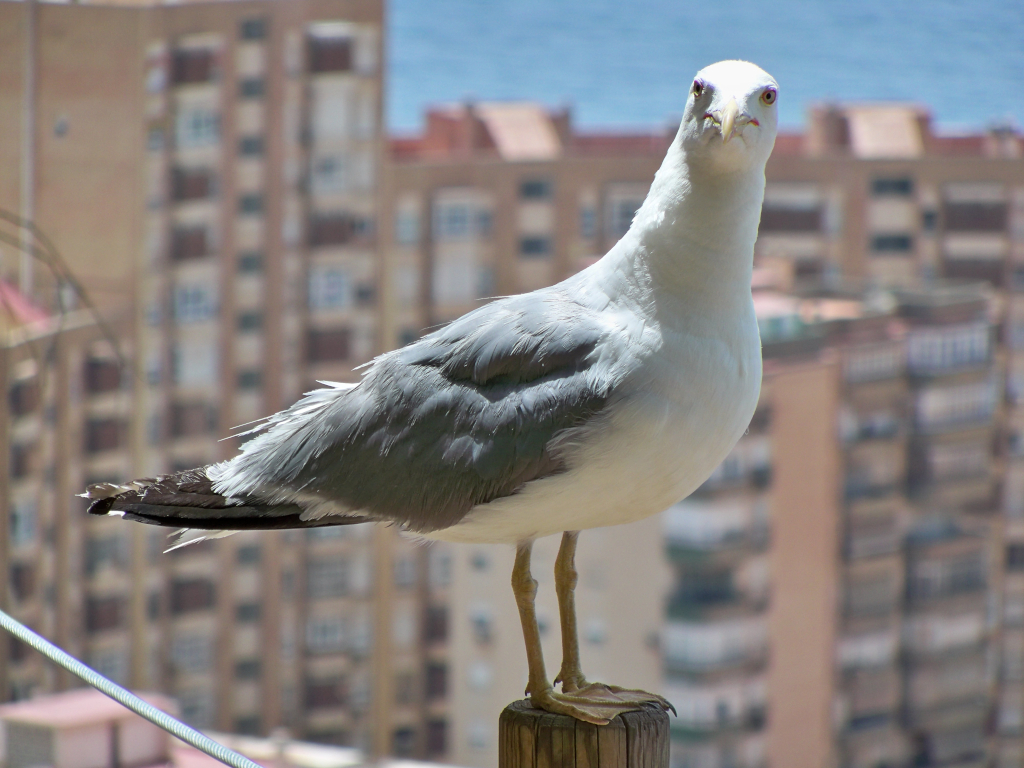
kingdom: Animalia
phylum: Chordata
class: Aves
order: Charadriiformes
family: Laridae
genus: Larus
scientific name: Larus michahellis
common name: Yellow-legged gull
